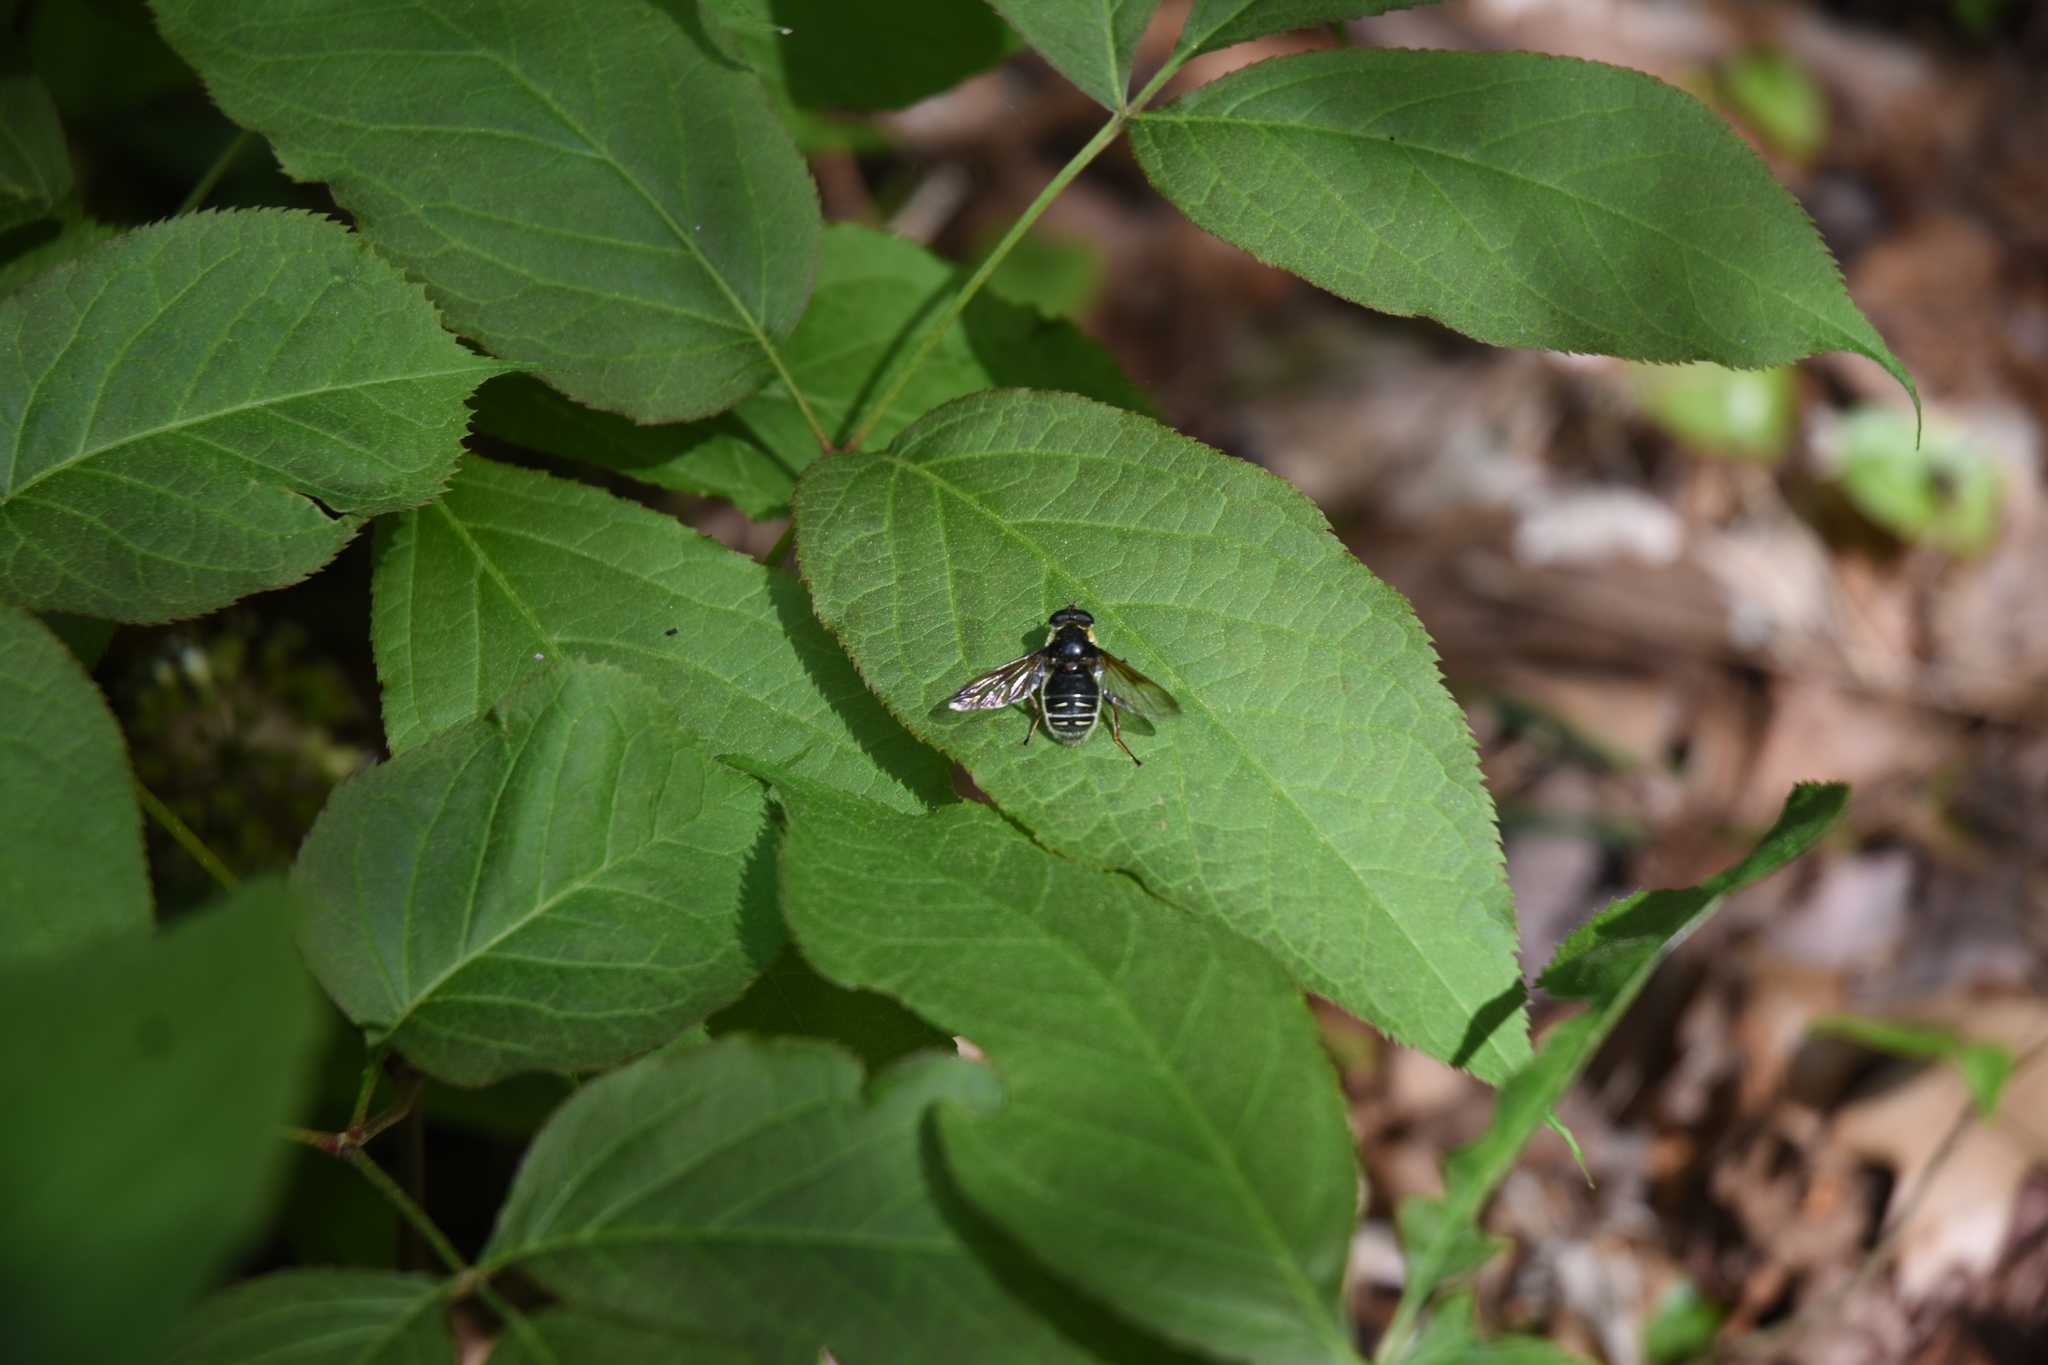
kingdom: Animalia
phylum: Arthropoda
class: Insecta
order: Diptera
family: Syrphidae
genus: Sericomyia
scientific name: Sericomyia militaris
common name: Narrow-banded pond fly
